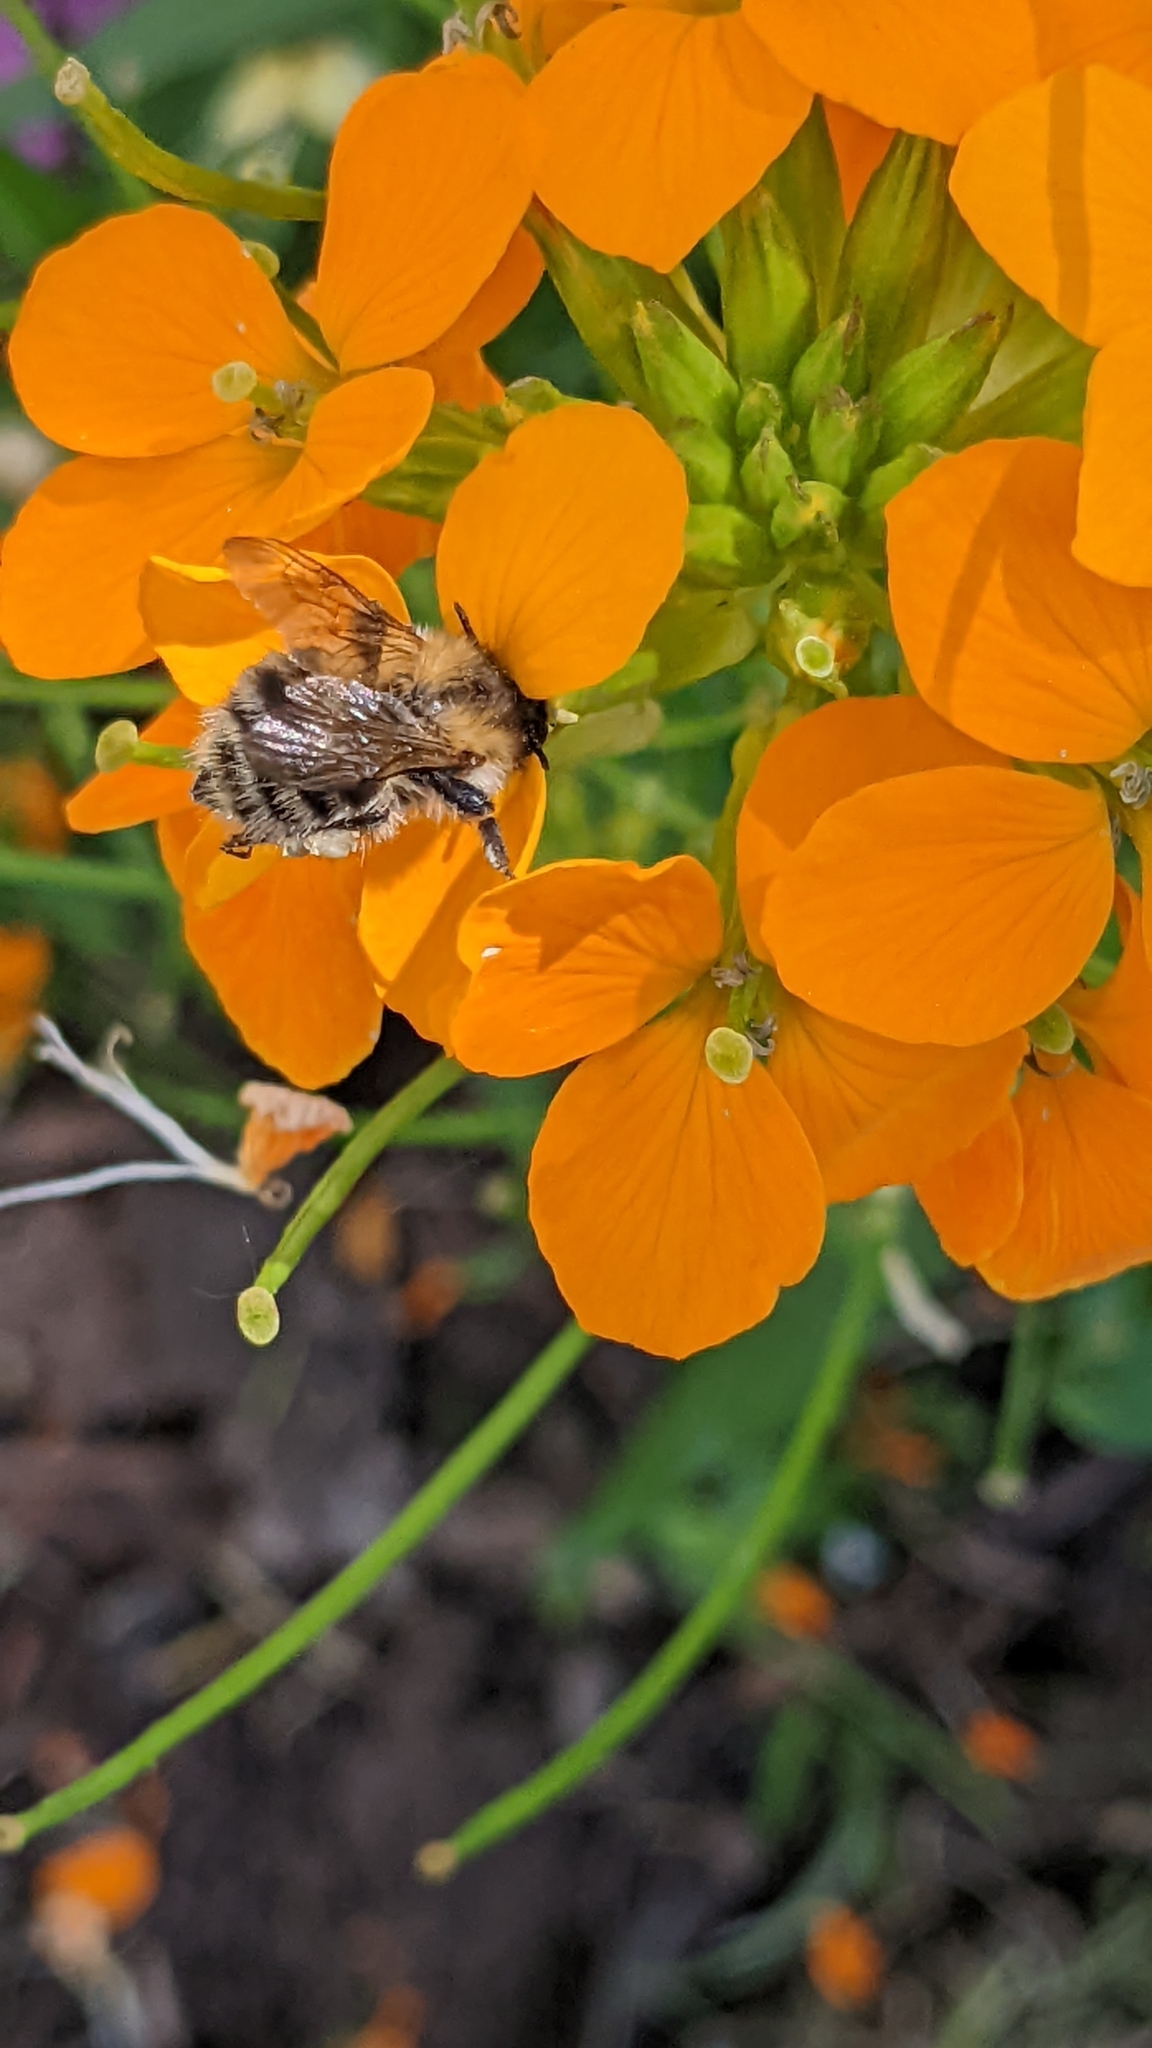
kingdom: Animalia
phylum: Arthropoda
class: Insecta
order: Hymenoptera
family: Apidae
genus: Bombus
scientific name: Bombus pascuorum
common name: Common carder bee
